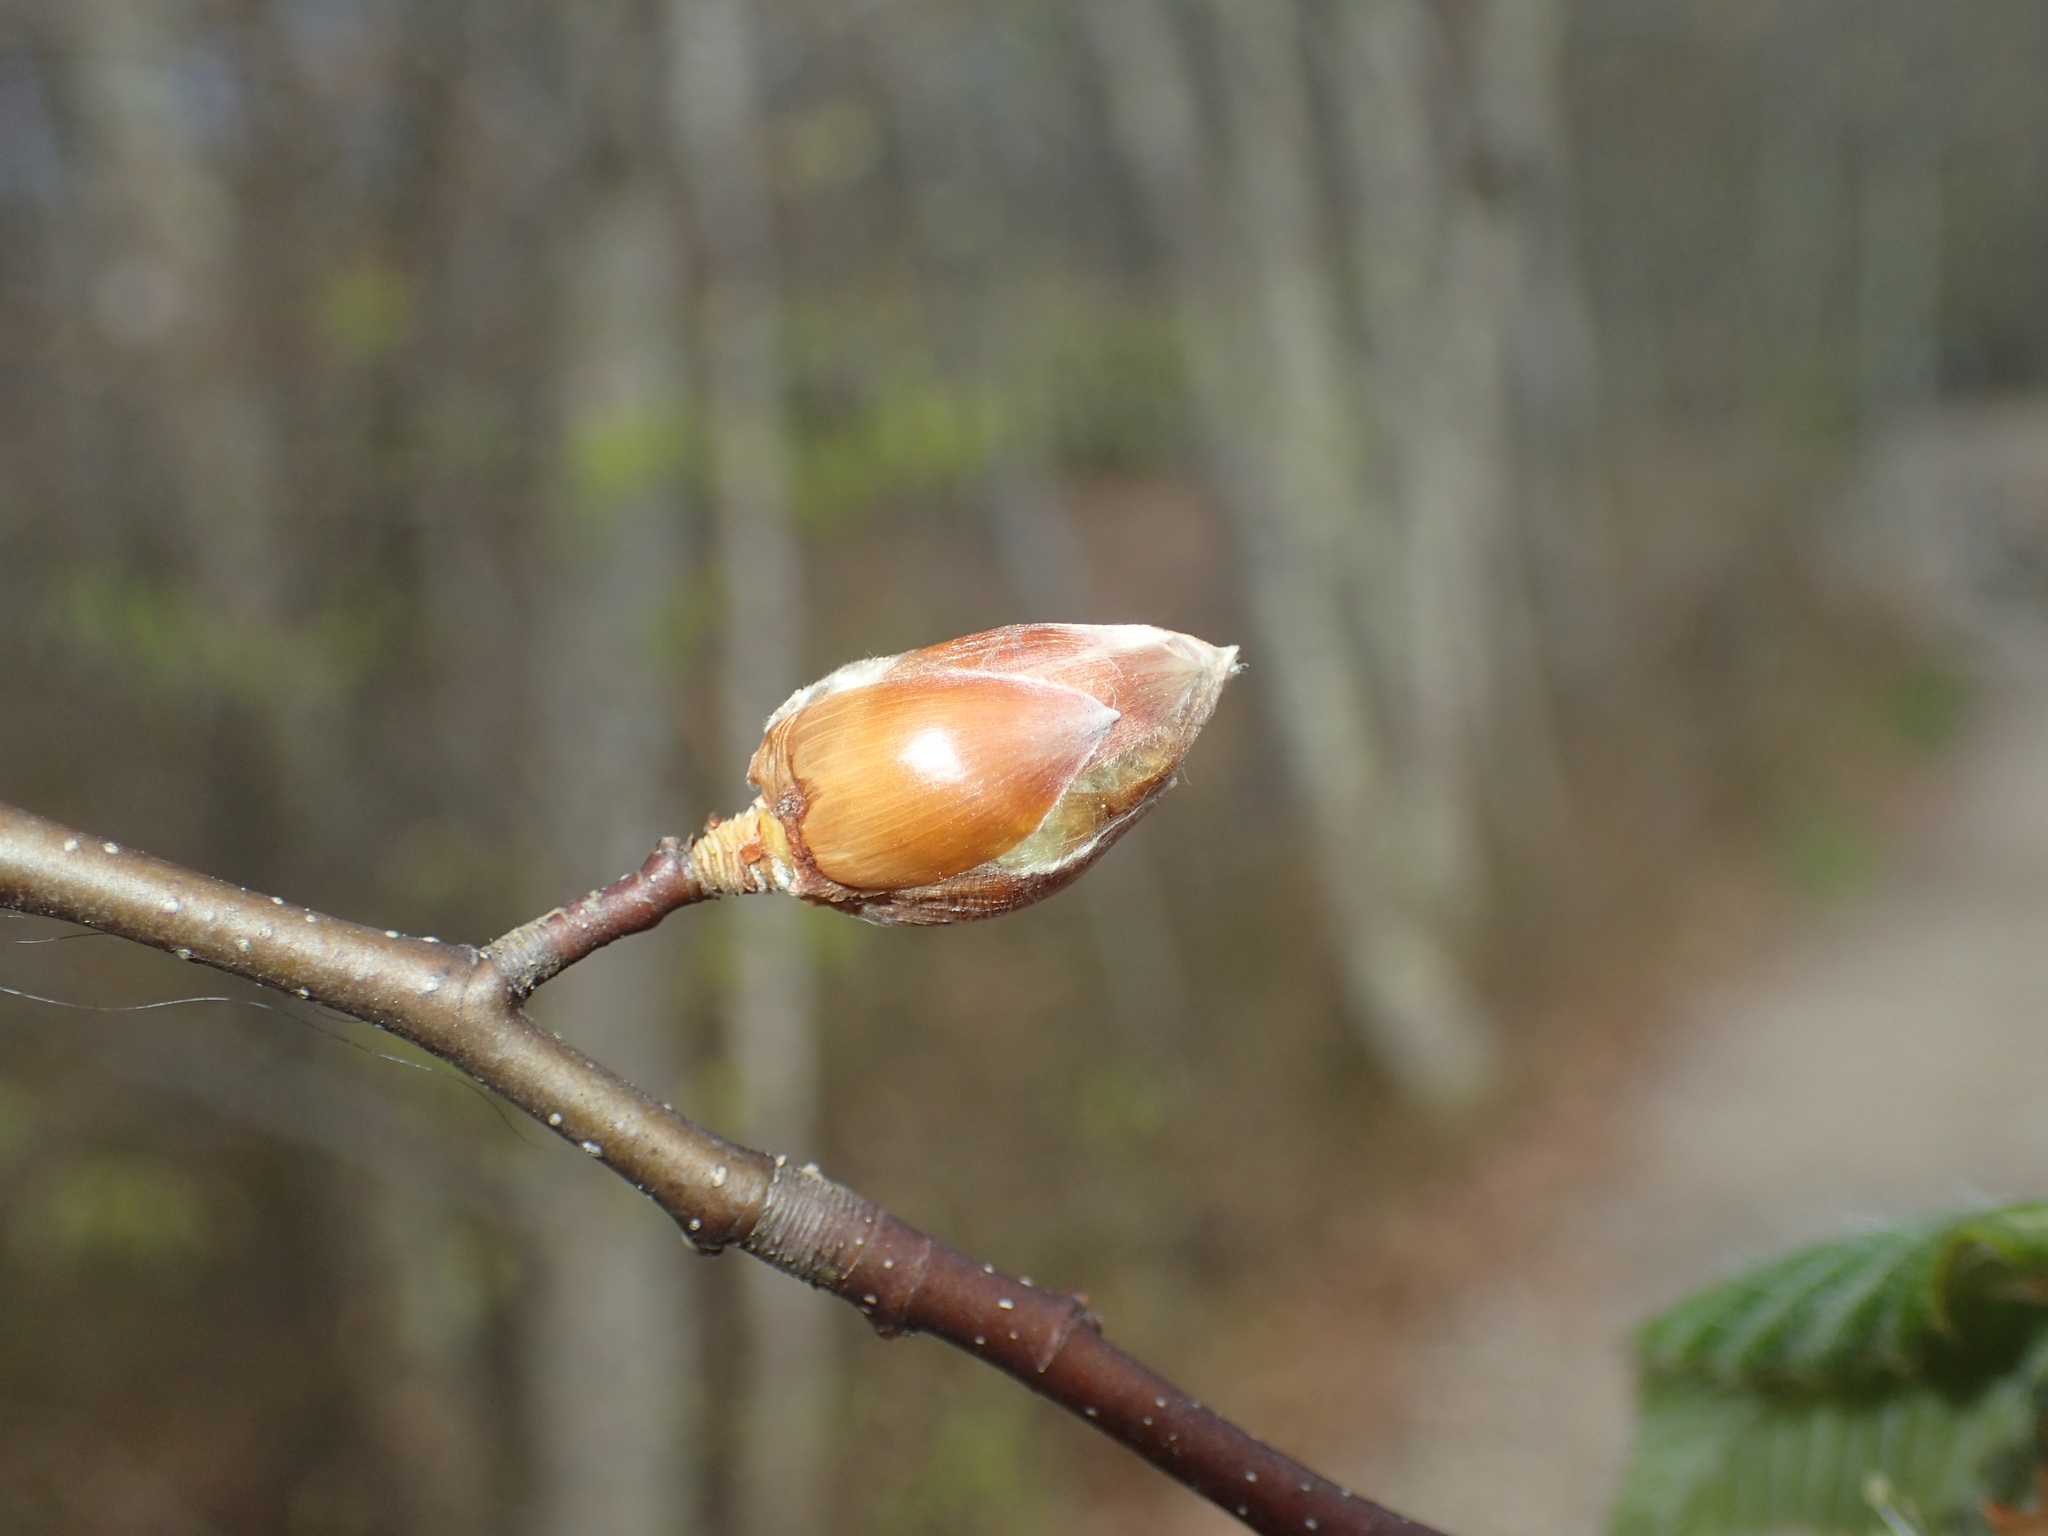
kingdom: Plantae
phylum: Tracheophyta
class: Magnoliopsida
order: Fagales
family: Fagaceae
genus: Fagus
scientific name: Fagus grandifolia
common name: American beech
